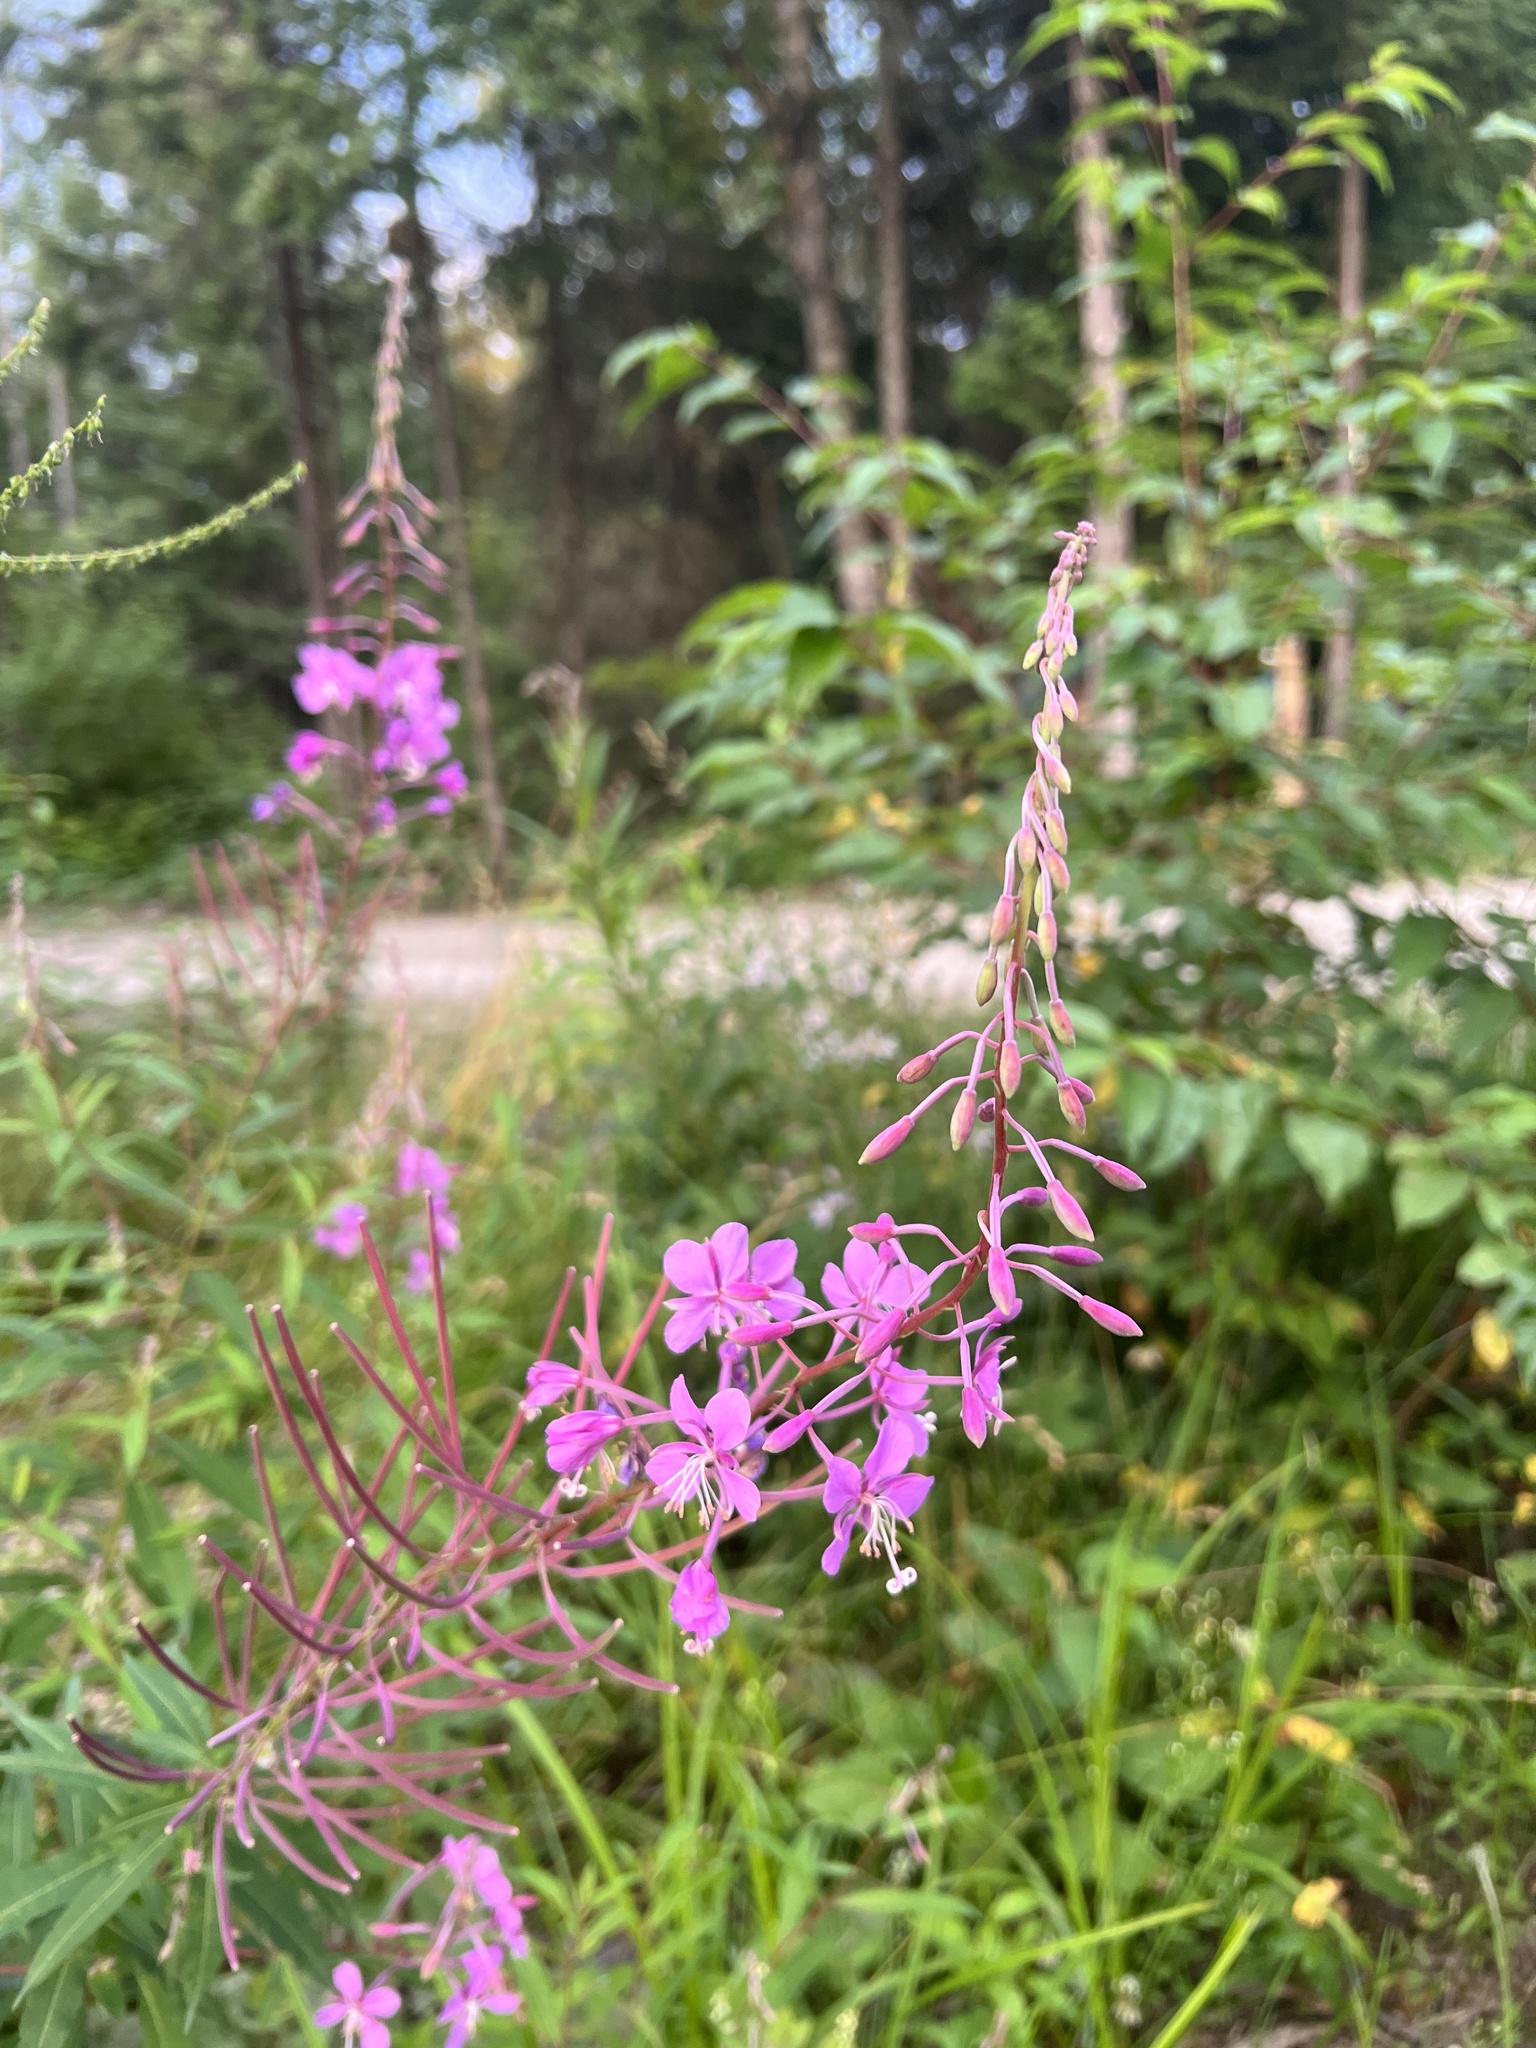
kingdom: Plantae
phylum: Tracheophyta
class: Magnoliopsida
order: Myrtales
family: Onagraceae
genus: Chamaenerion
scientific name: Chamaenerion angustifolium
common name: Fireweed
